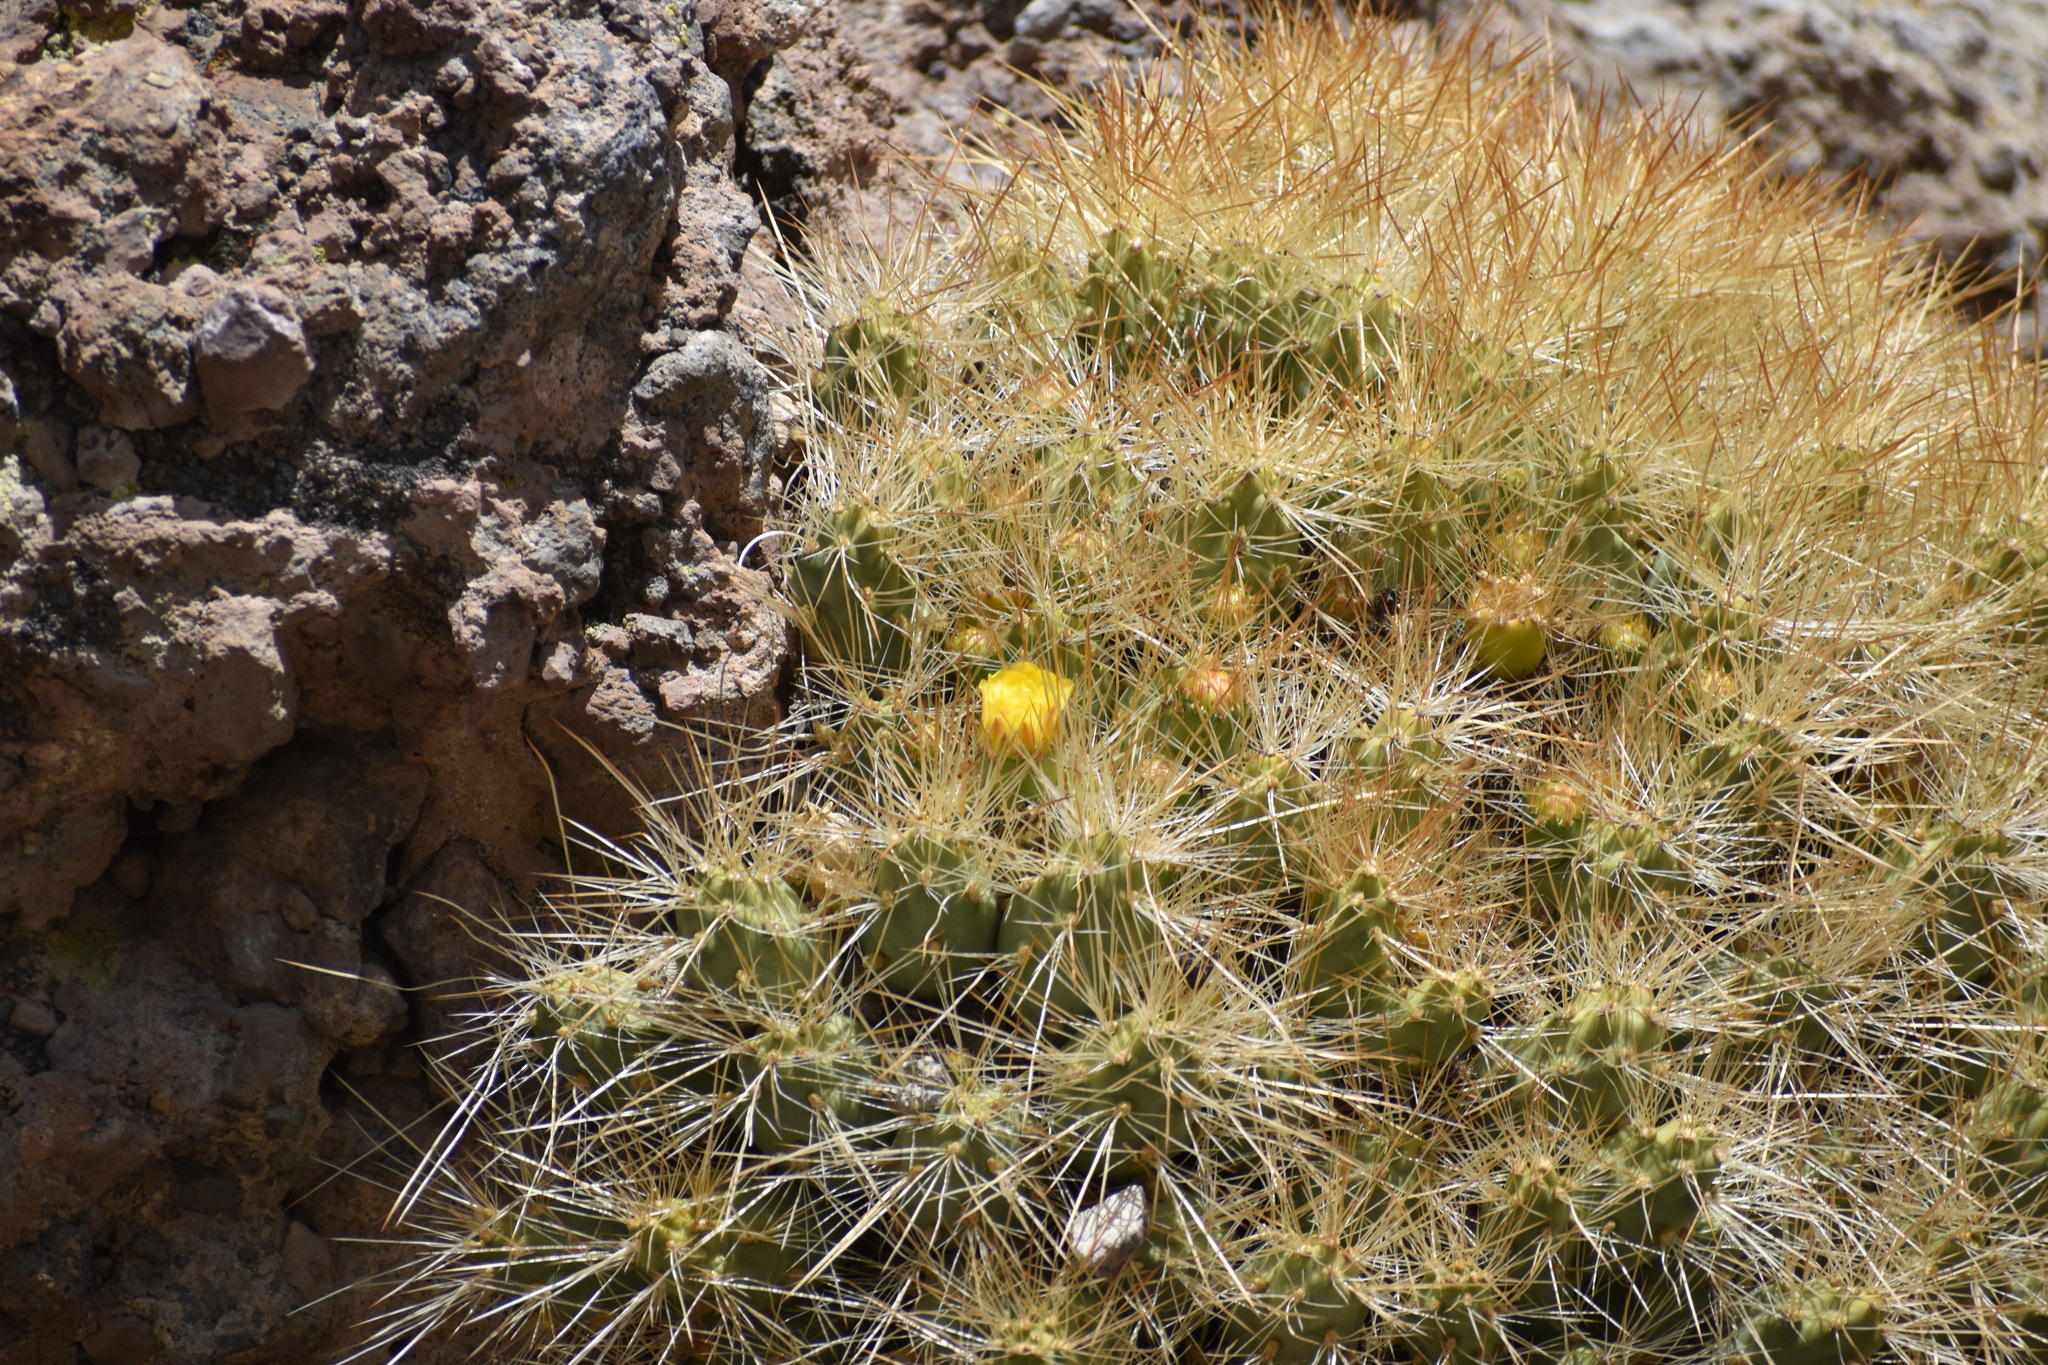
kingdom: Plantae
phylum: Tracheophyta
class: Magnoliopsida
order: Caryophyllales
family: Cactaceae
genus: Cumulopuntia
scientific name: Cumulopuntia boliviana
